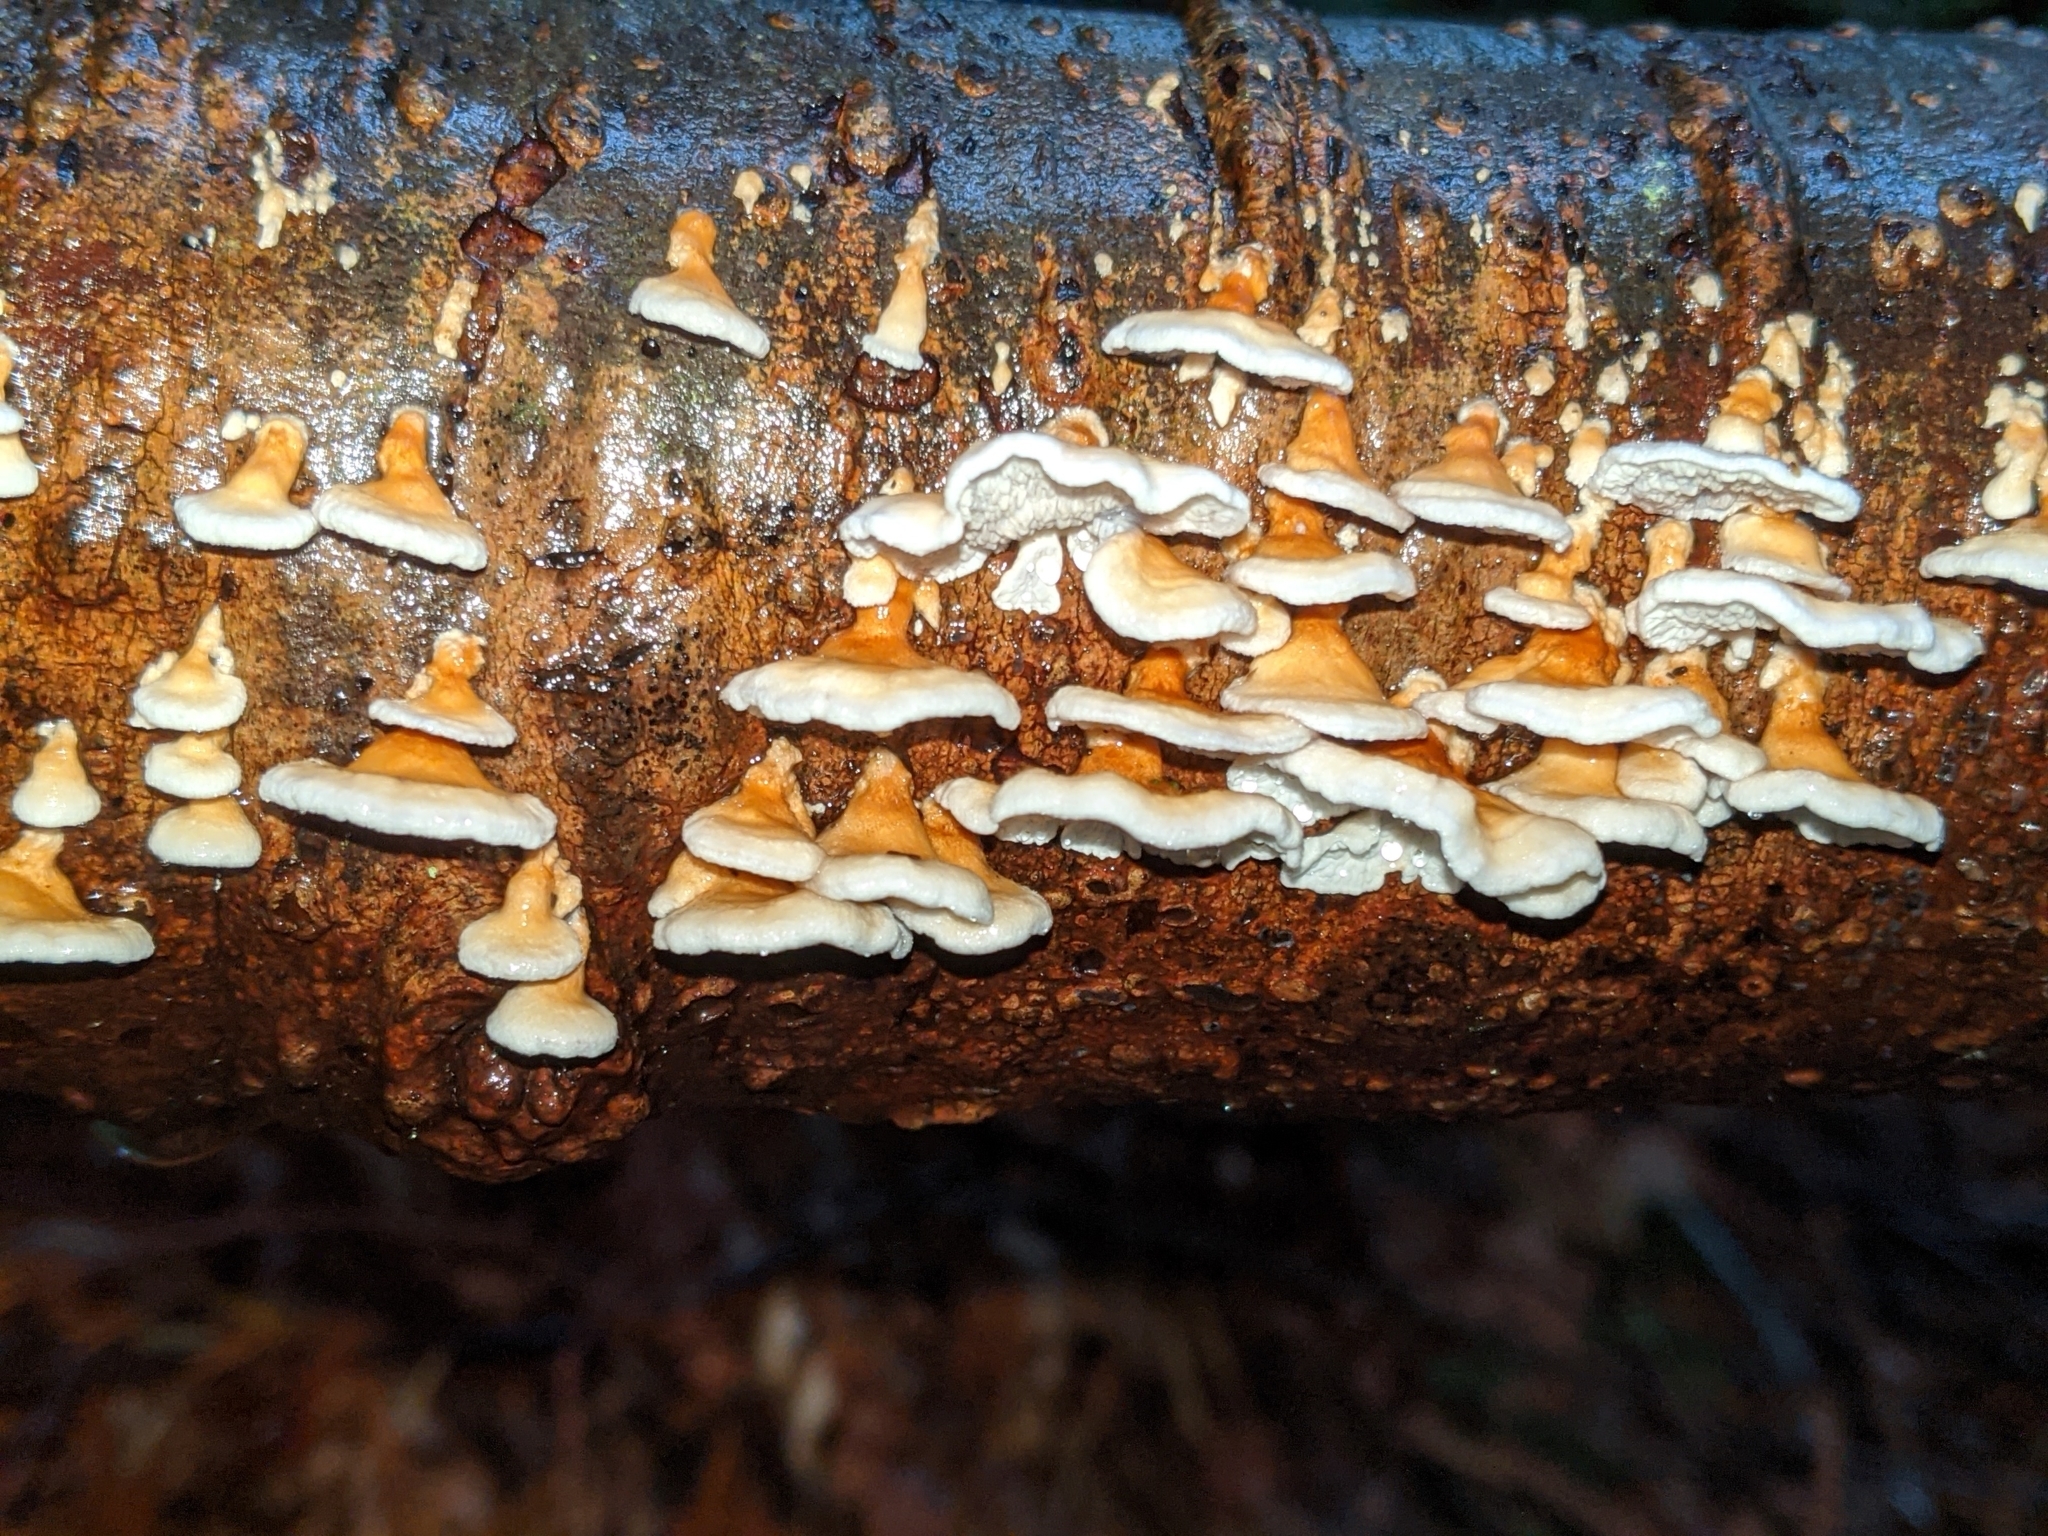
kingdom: Fungi
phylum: Basidiomycota
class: Agaricomycetes
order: Amylocorticiales
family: Amylocorticiaceae
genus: Plicaturopsis
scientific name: Plicaturopsis crispa
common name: Crimped gill
